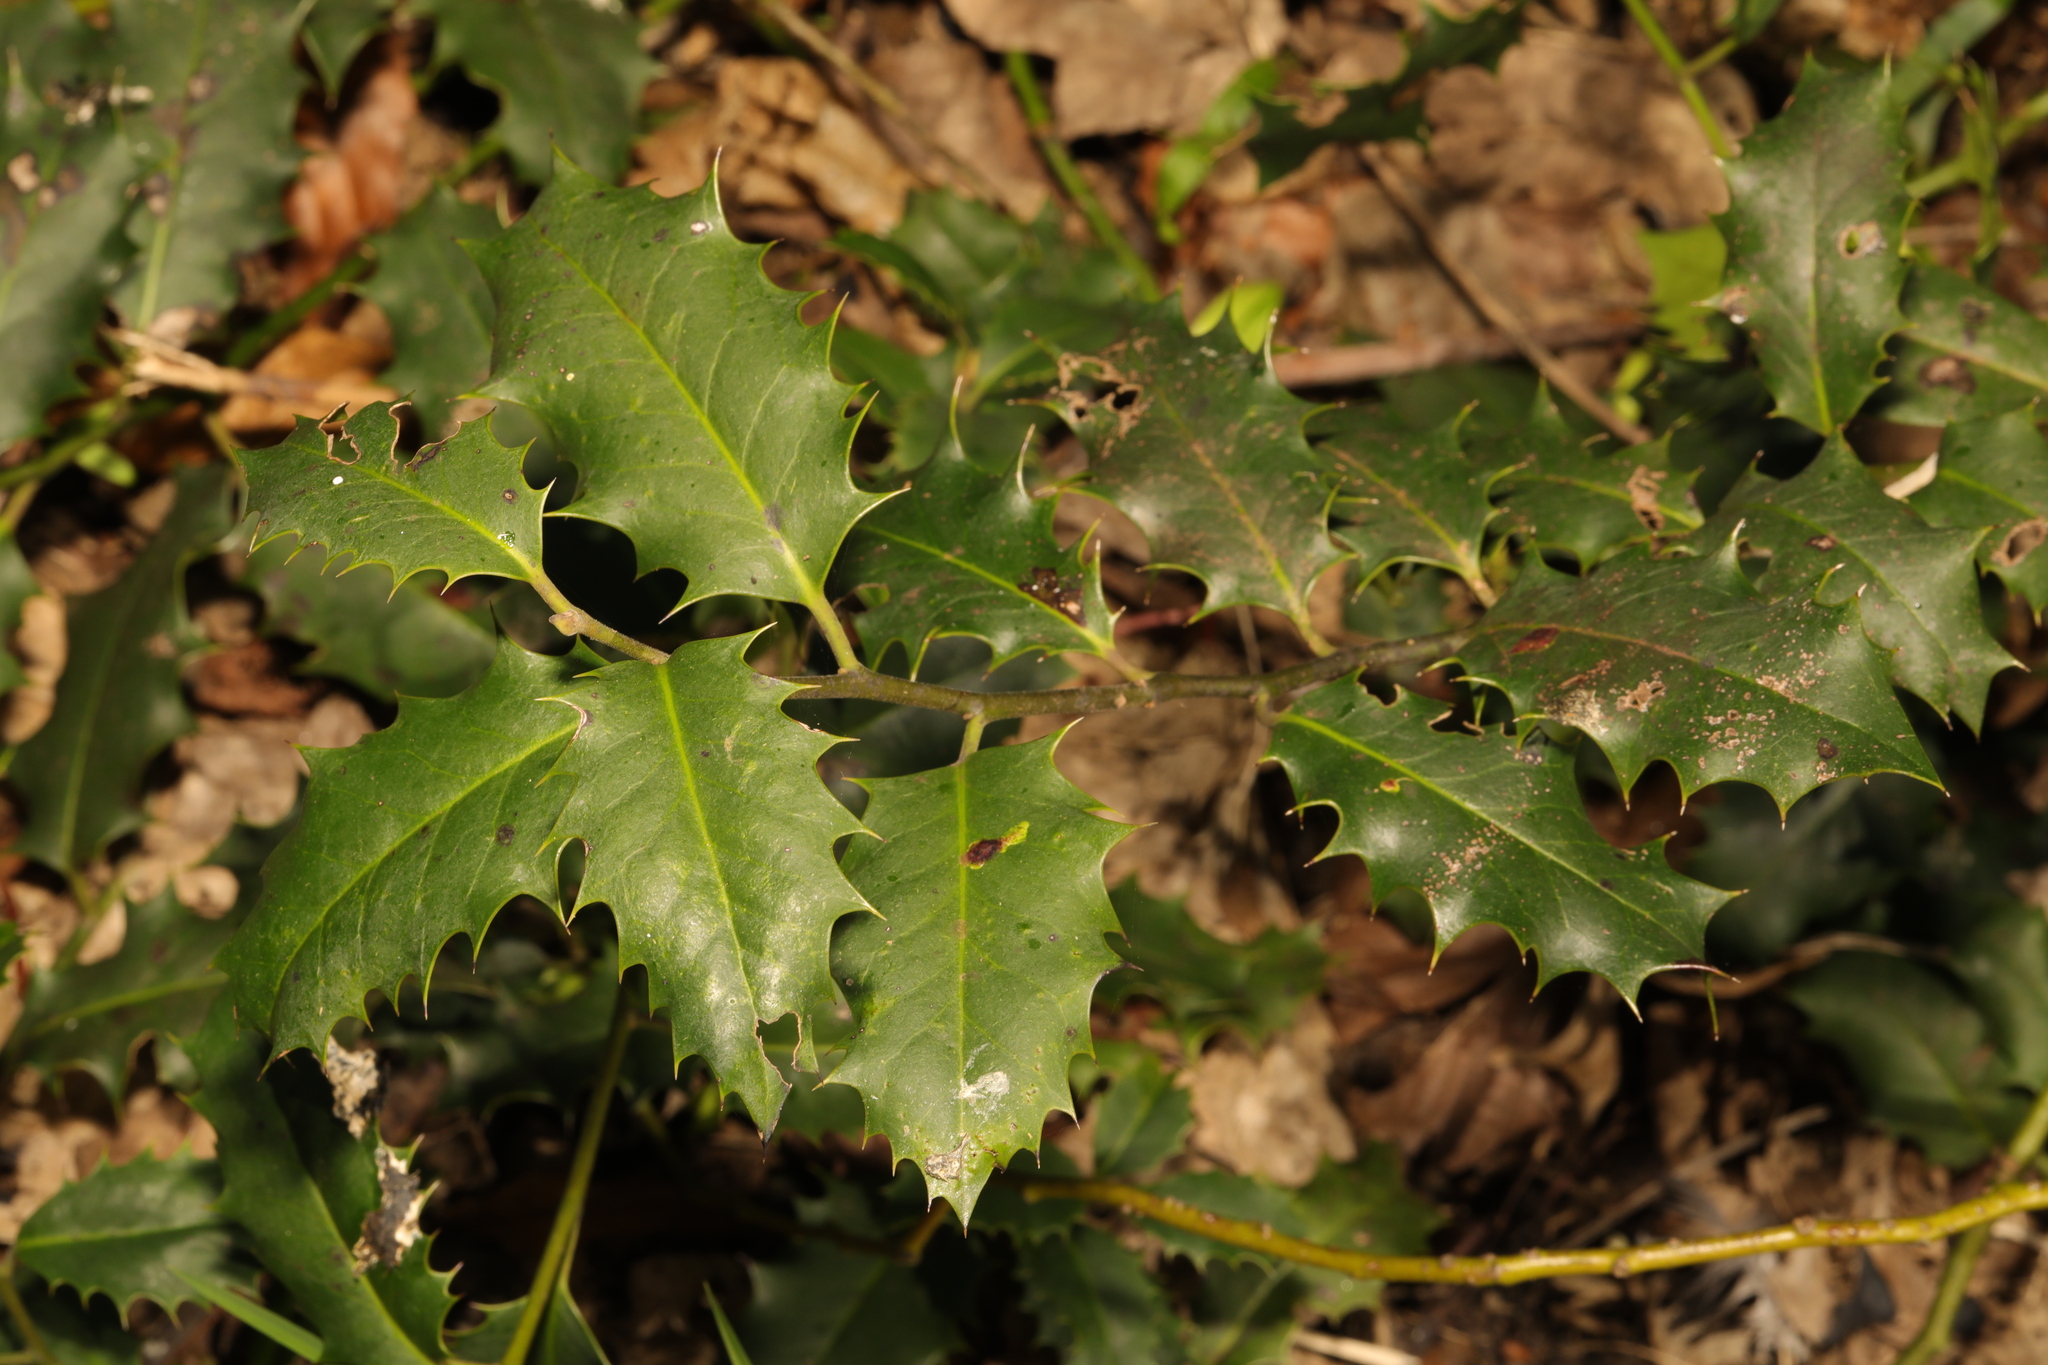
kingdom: Plantae
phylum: Tracheophyta
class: Magnoliopsida
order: Aquifoliales
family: Aquifoliaceae
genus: Ilex
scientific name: Ilex aquifolium
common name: English holly
